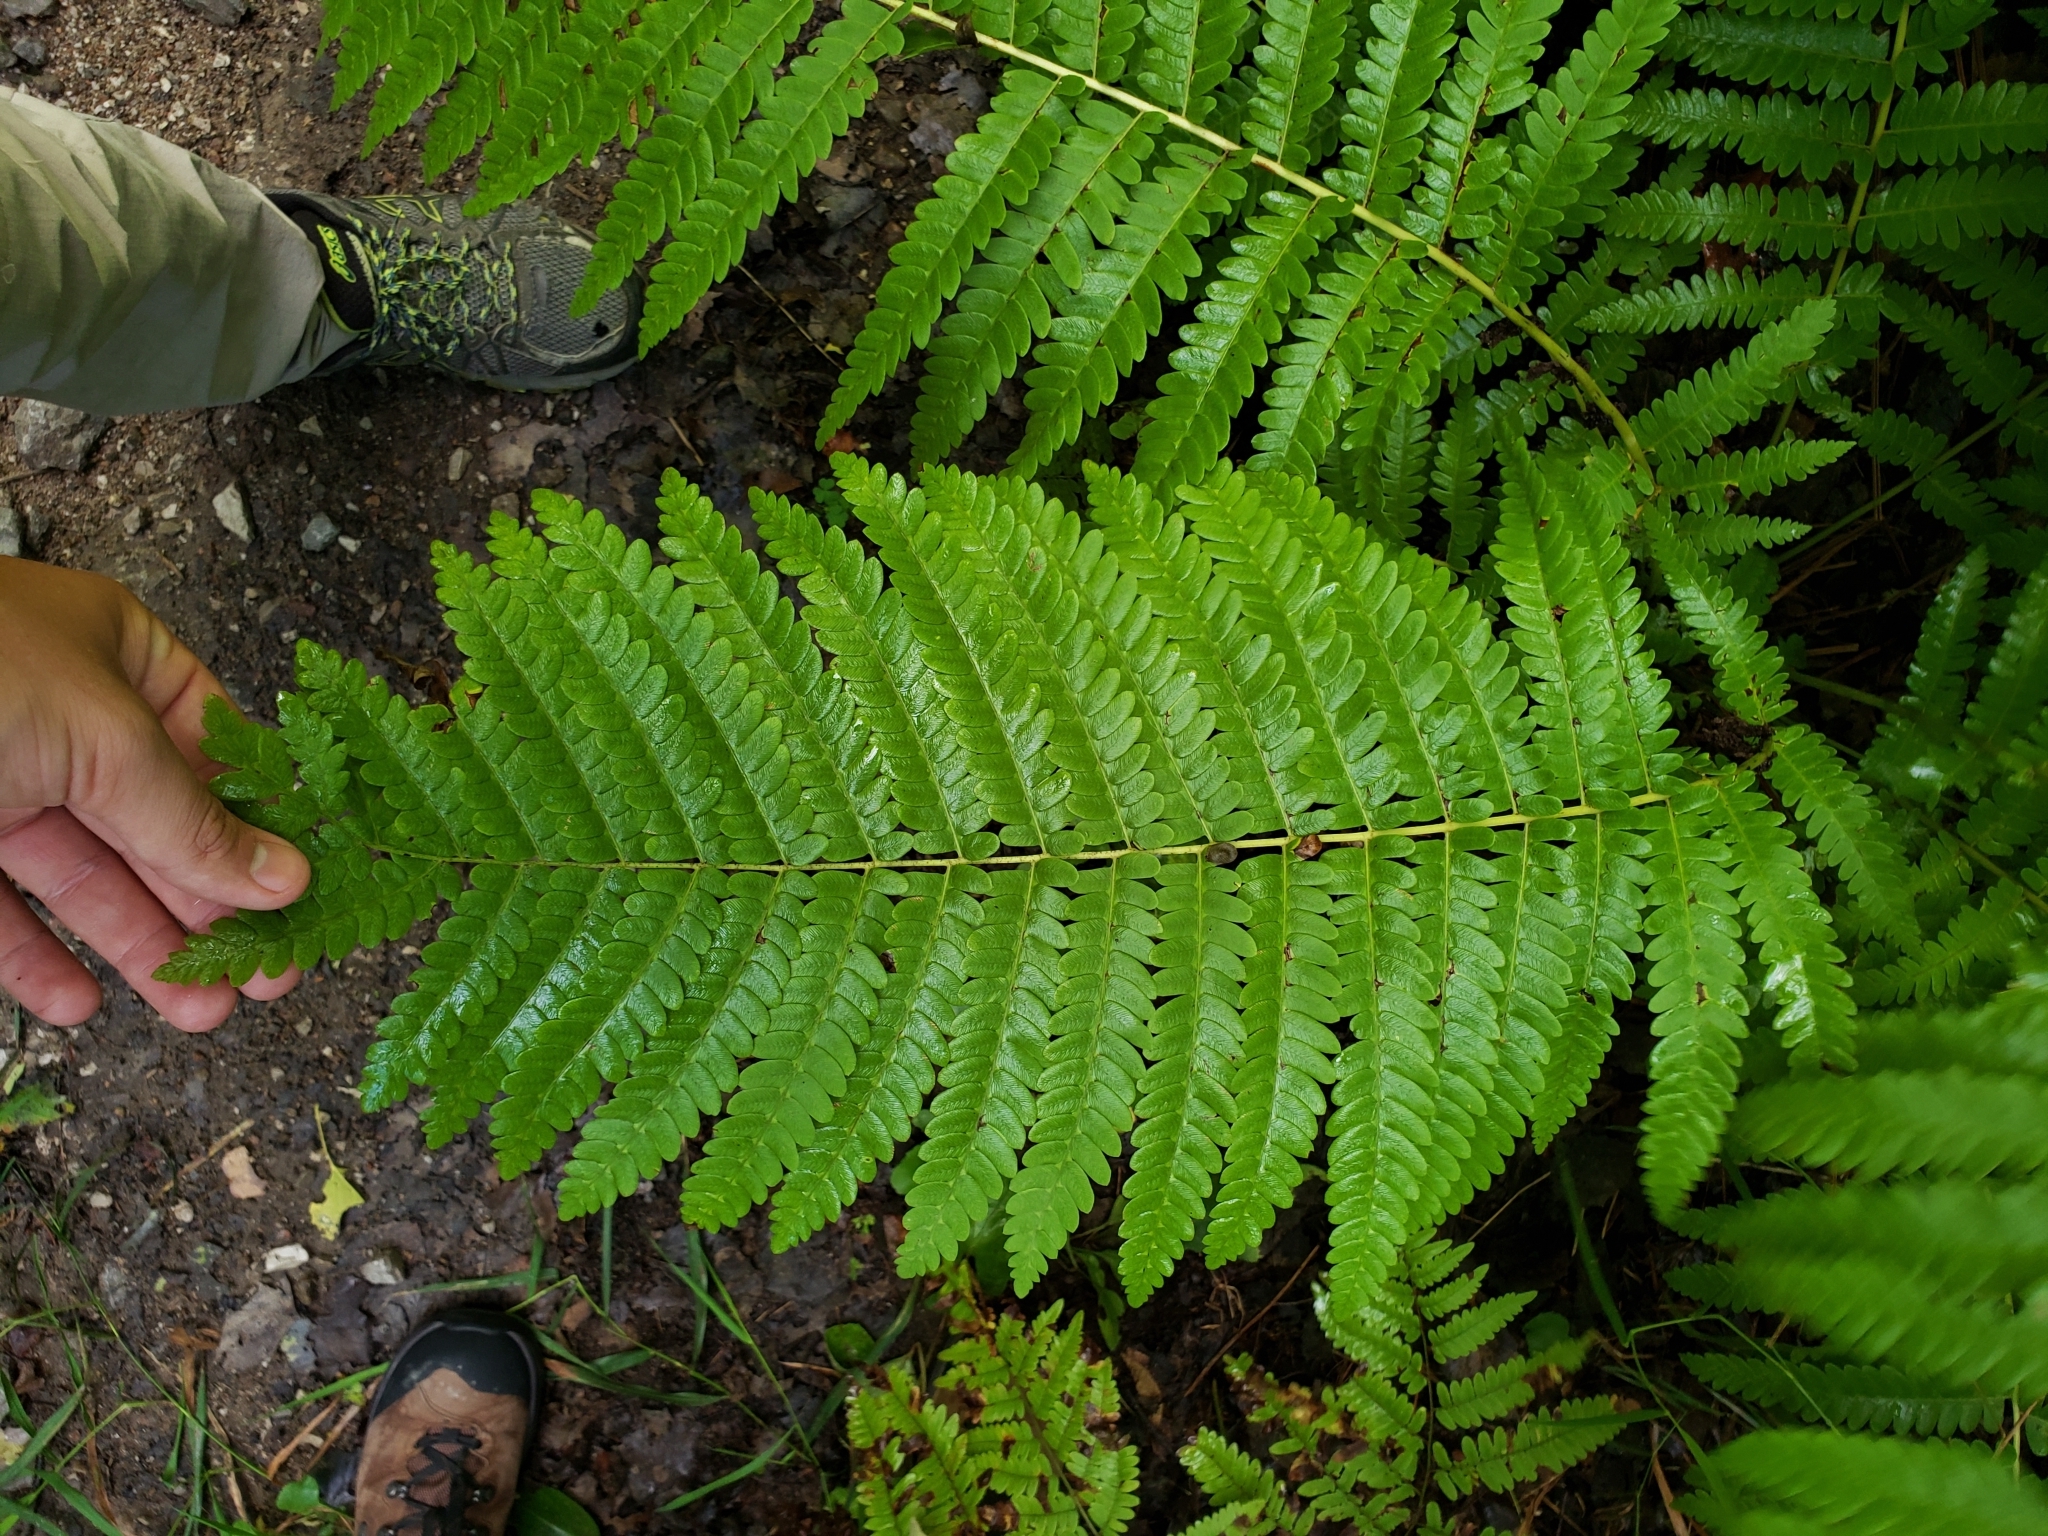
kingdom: Plantae
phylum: Tracheophyta
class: Polypodiopsida
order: Osmundales
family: Osmundaceae
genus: Claytosmunda
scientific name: Claytosmunda claytoniana
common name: Clayton's fern
